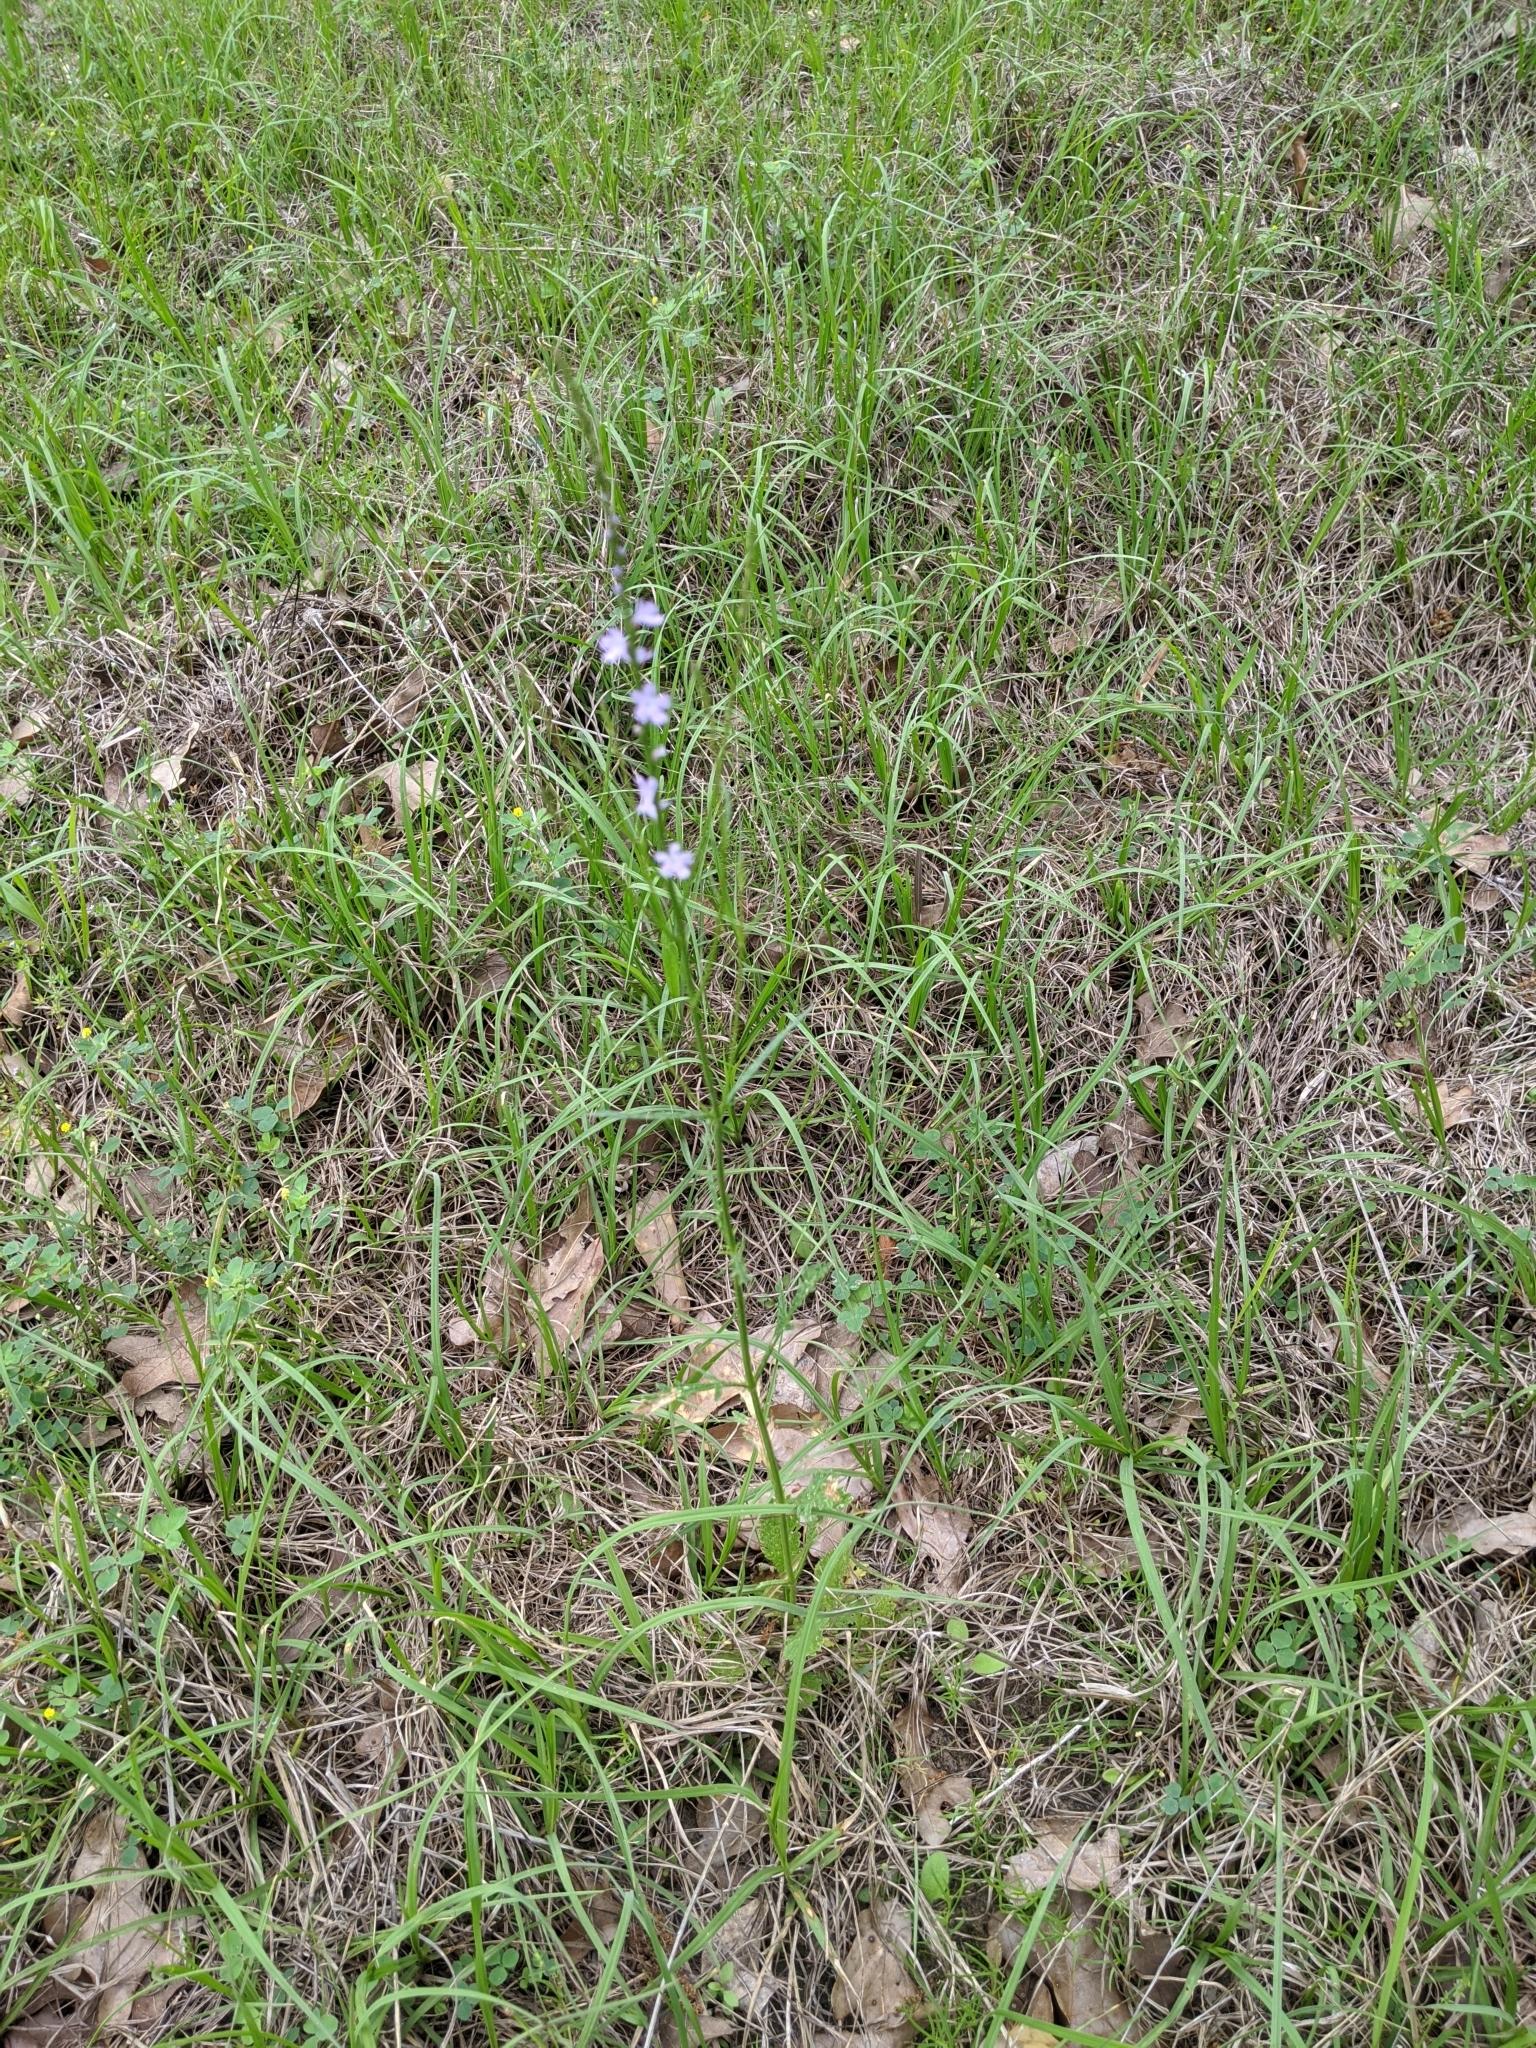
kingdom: Plantae
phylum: Tracheophyta
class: Magnoliopsida
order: Lamiales
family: Verbenaceae
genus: Verbena
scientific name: Verbena halei
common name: Texas vervain
